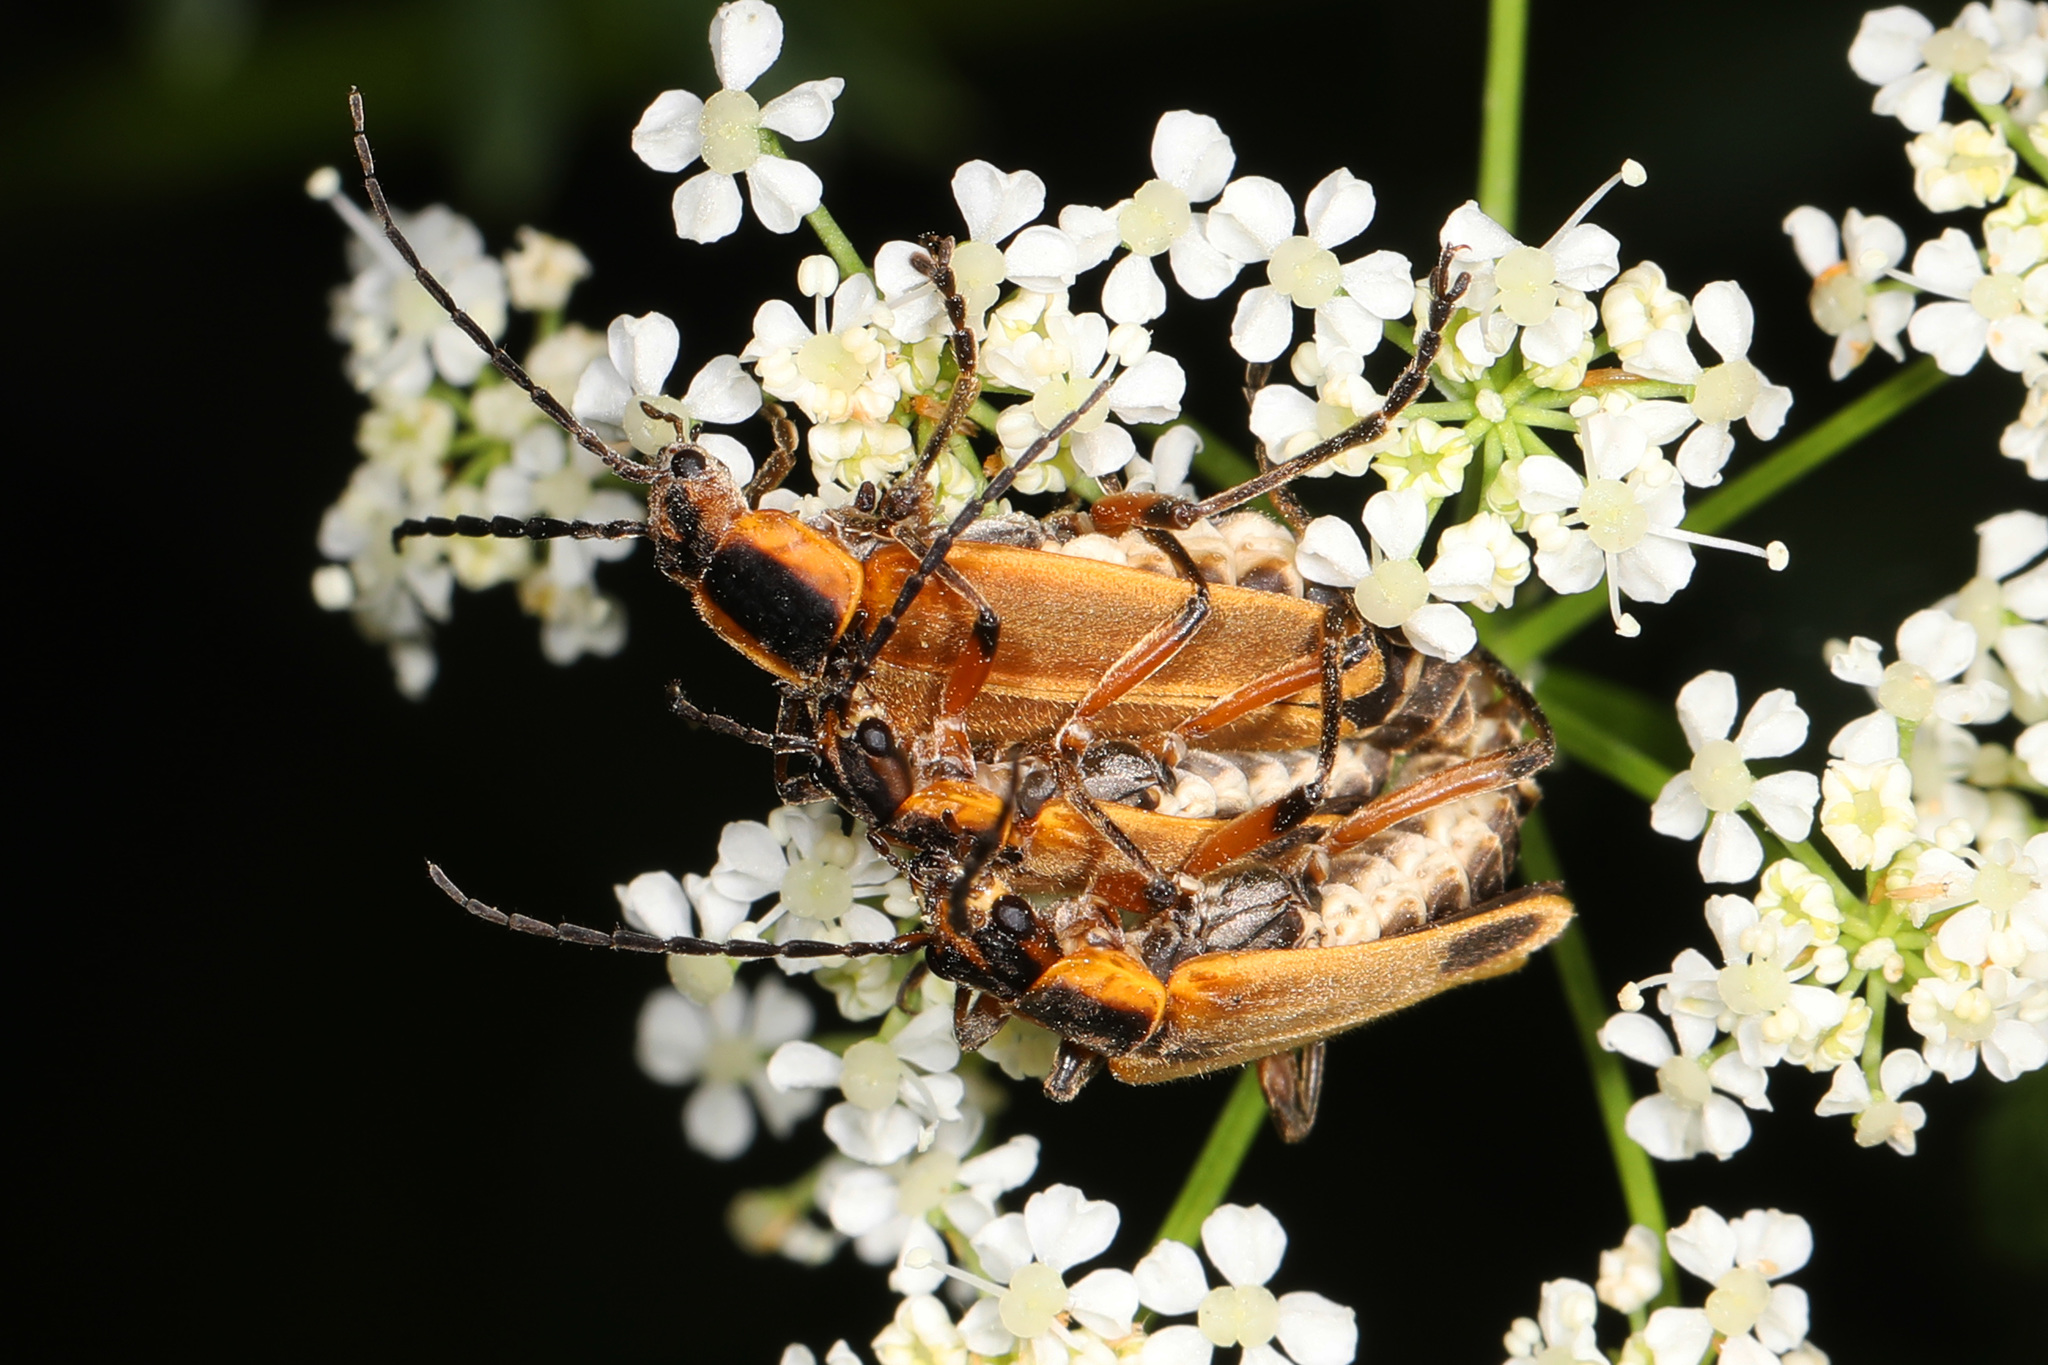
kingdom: Animalia
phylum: Arthropoda
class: Insecta
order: Coleoptera
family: Cantharidae
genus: Chauliognathus
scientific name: Chauliognathus marginatus
